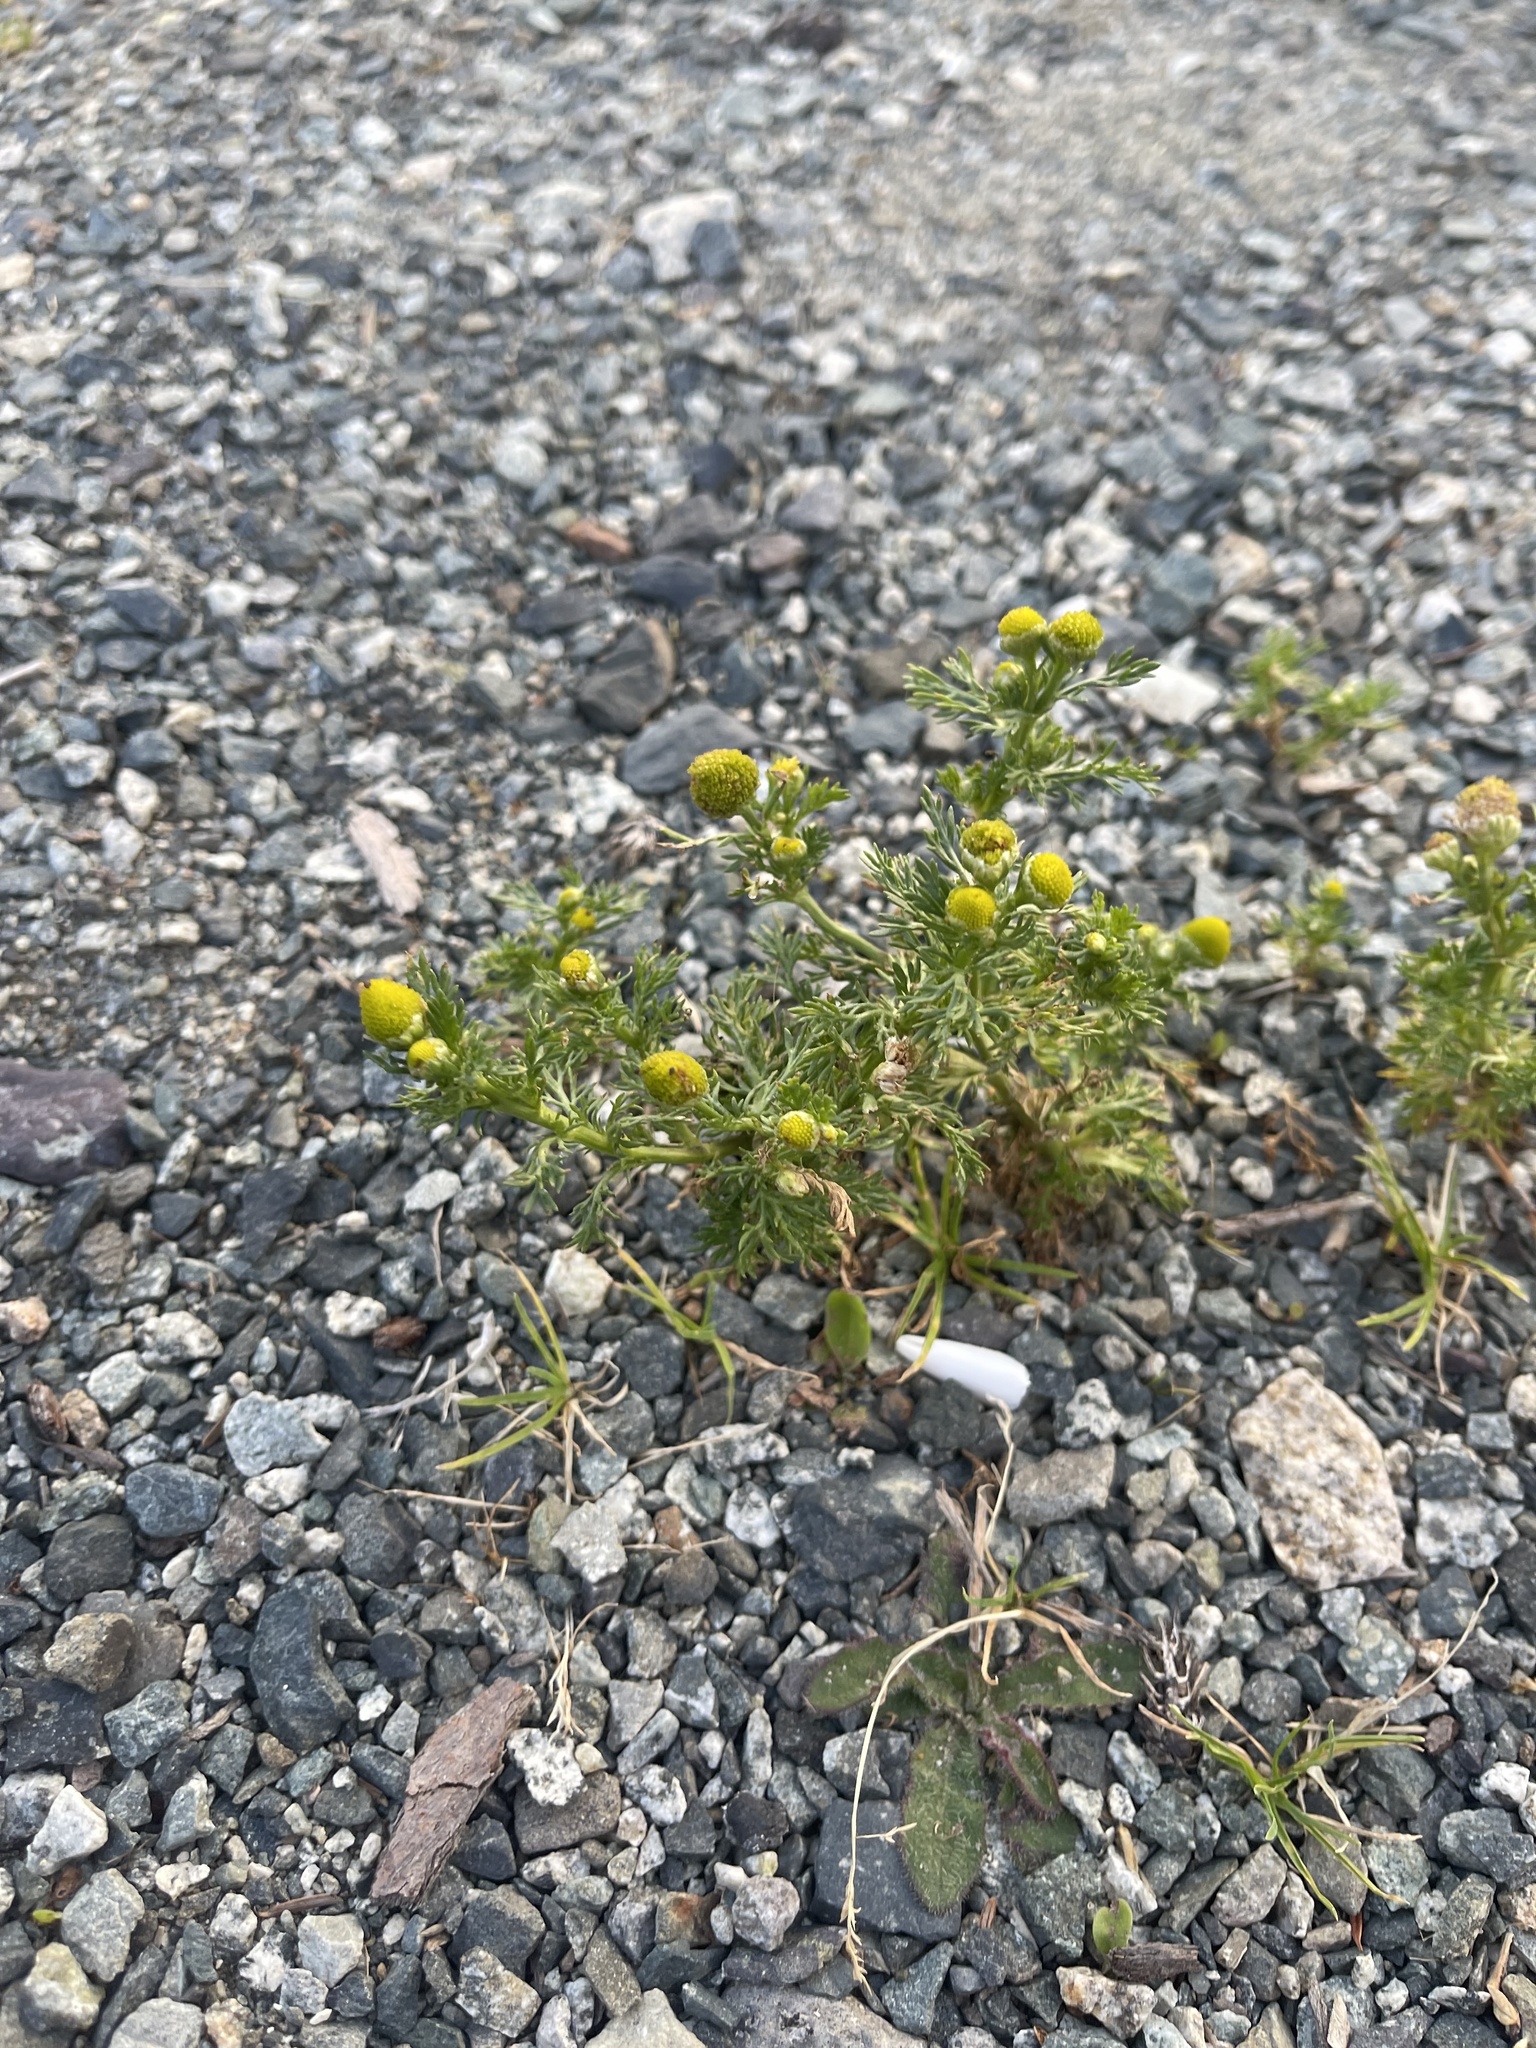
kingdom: Plantae
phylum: Tracheophyta
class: Magnoliopsida
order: Asterales
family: Asteraceae
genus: Matricaria
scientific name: Matricaria discoidea
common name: Disc mayweed
